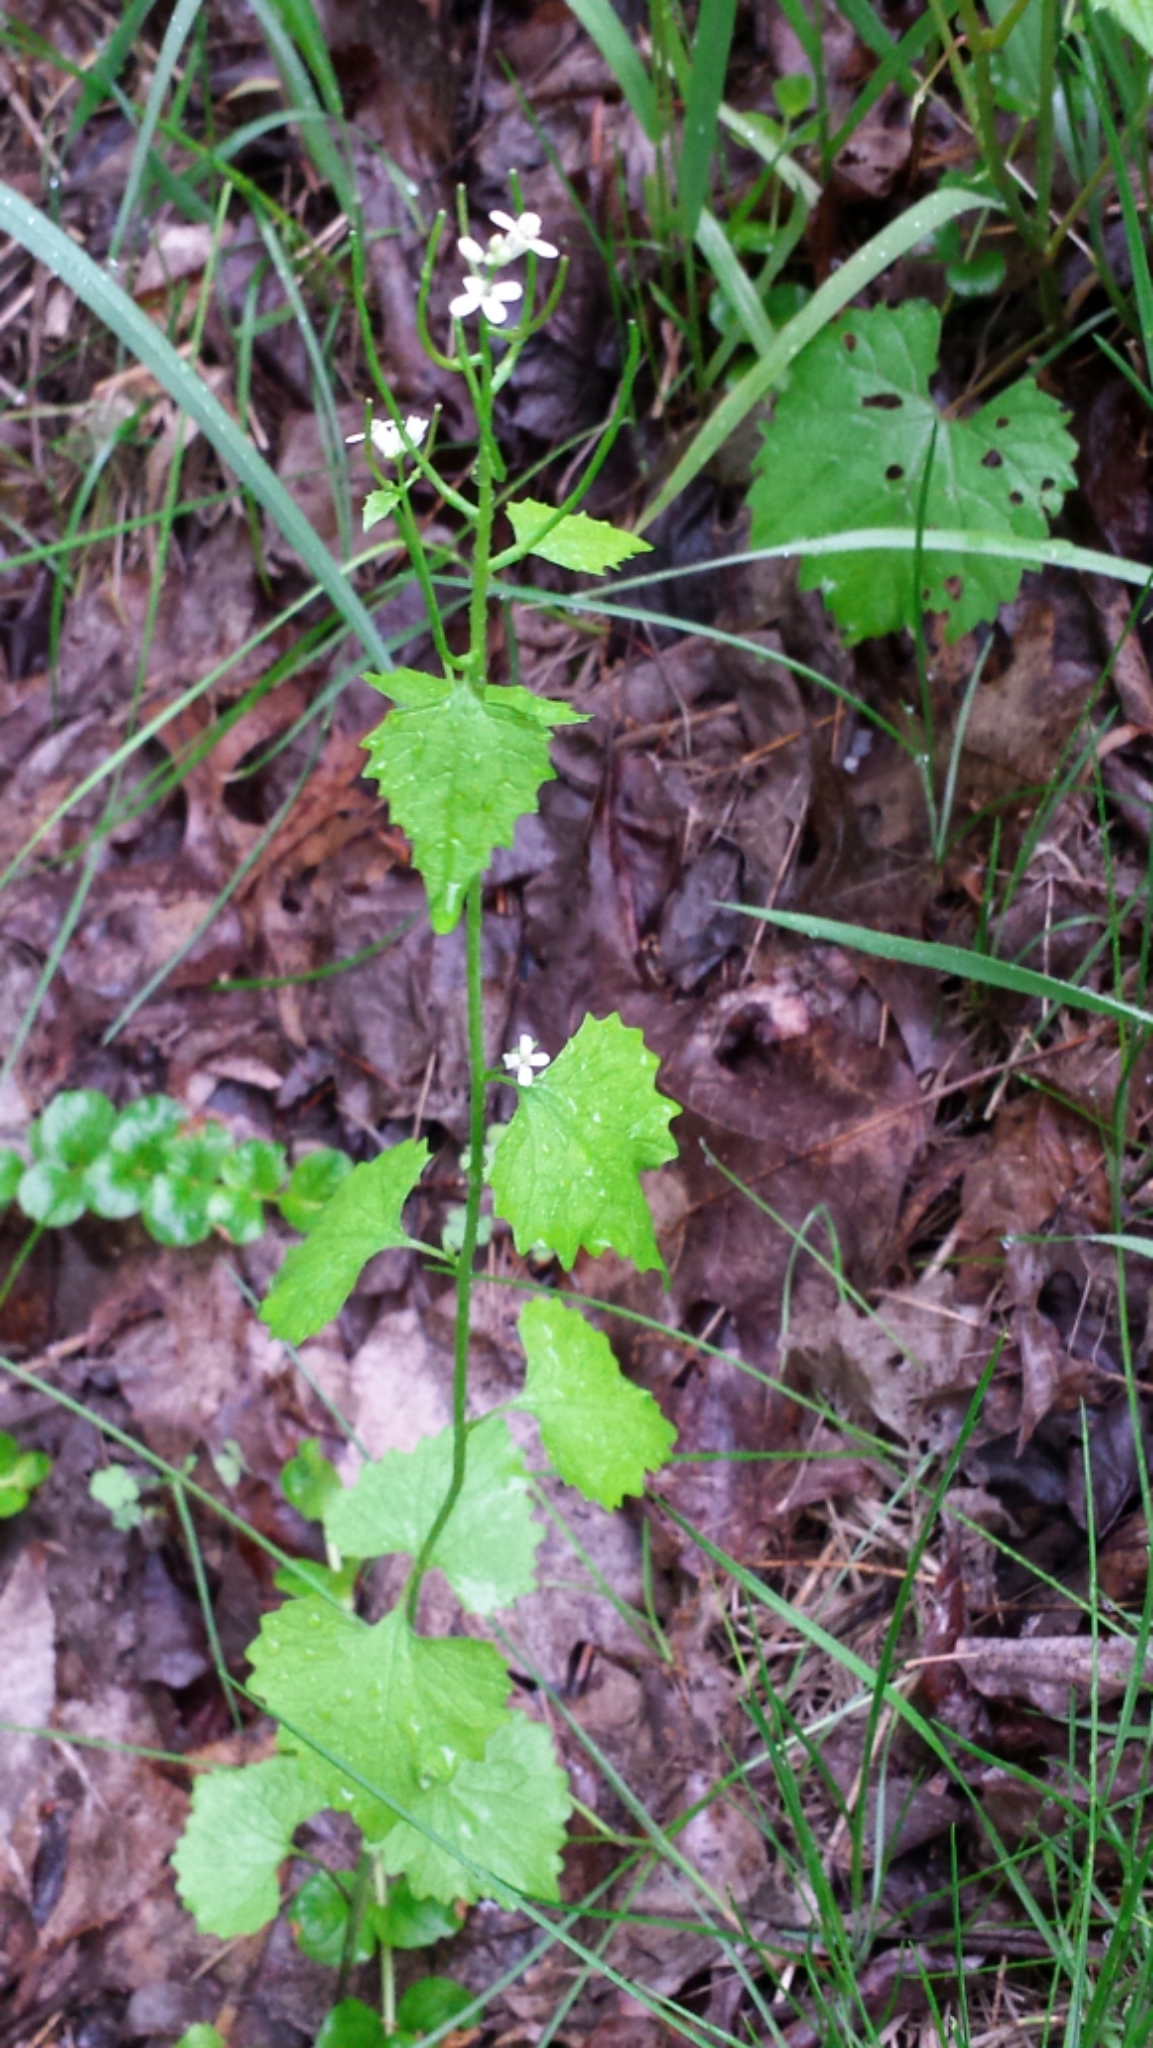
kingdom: Plantae
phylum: Tracheophyta
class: Magnoliopsida
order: Brassicales
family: Brassicaceae
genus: Alliaria
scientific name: Alliaria petiolata
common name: Garlic mustard
